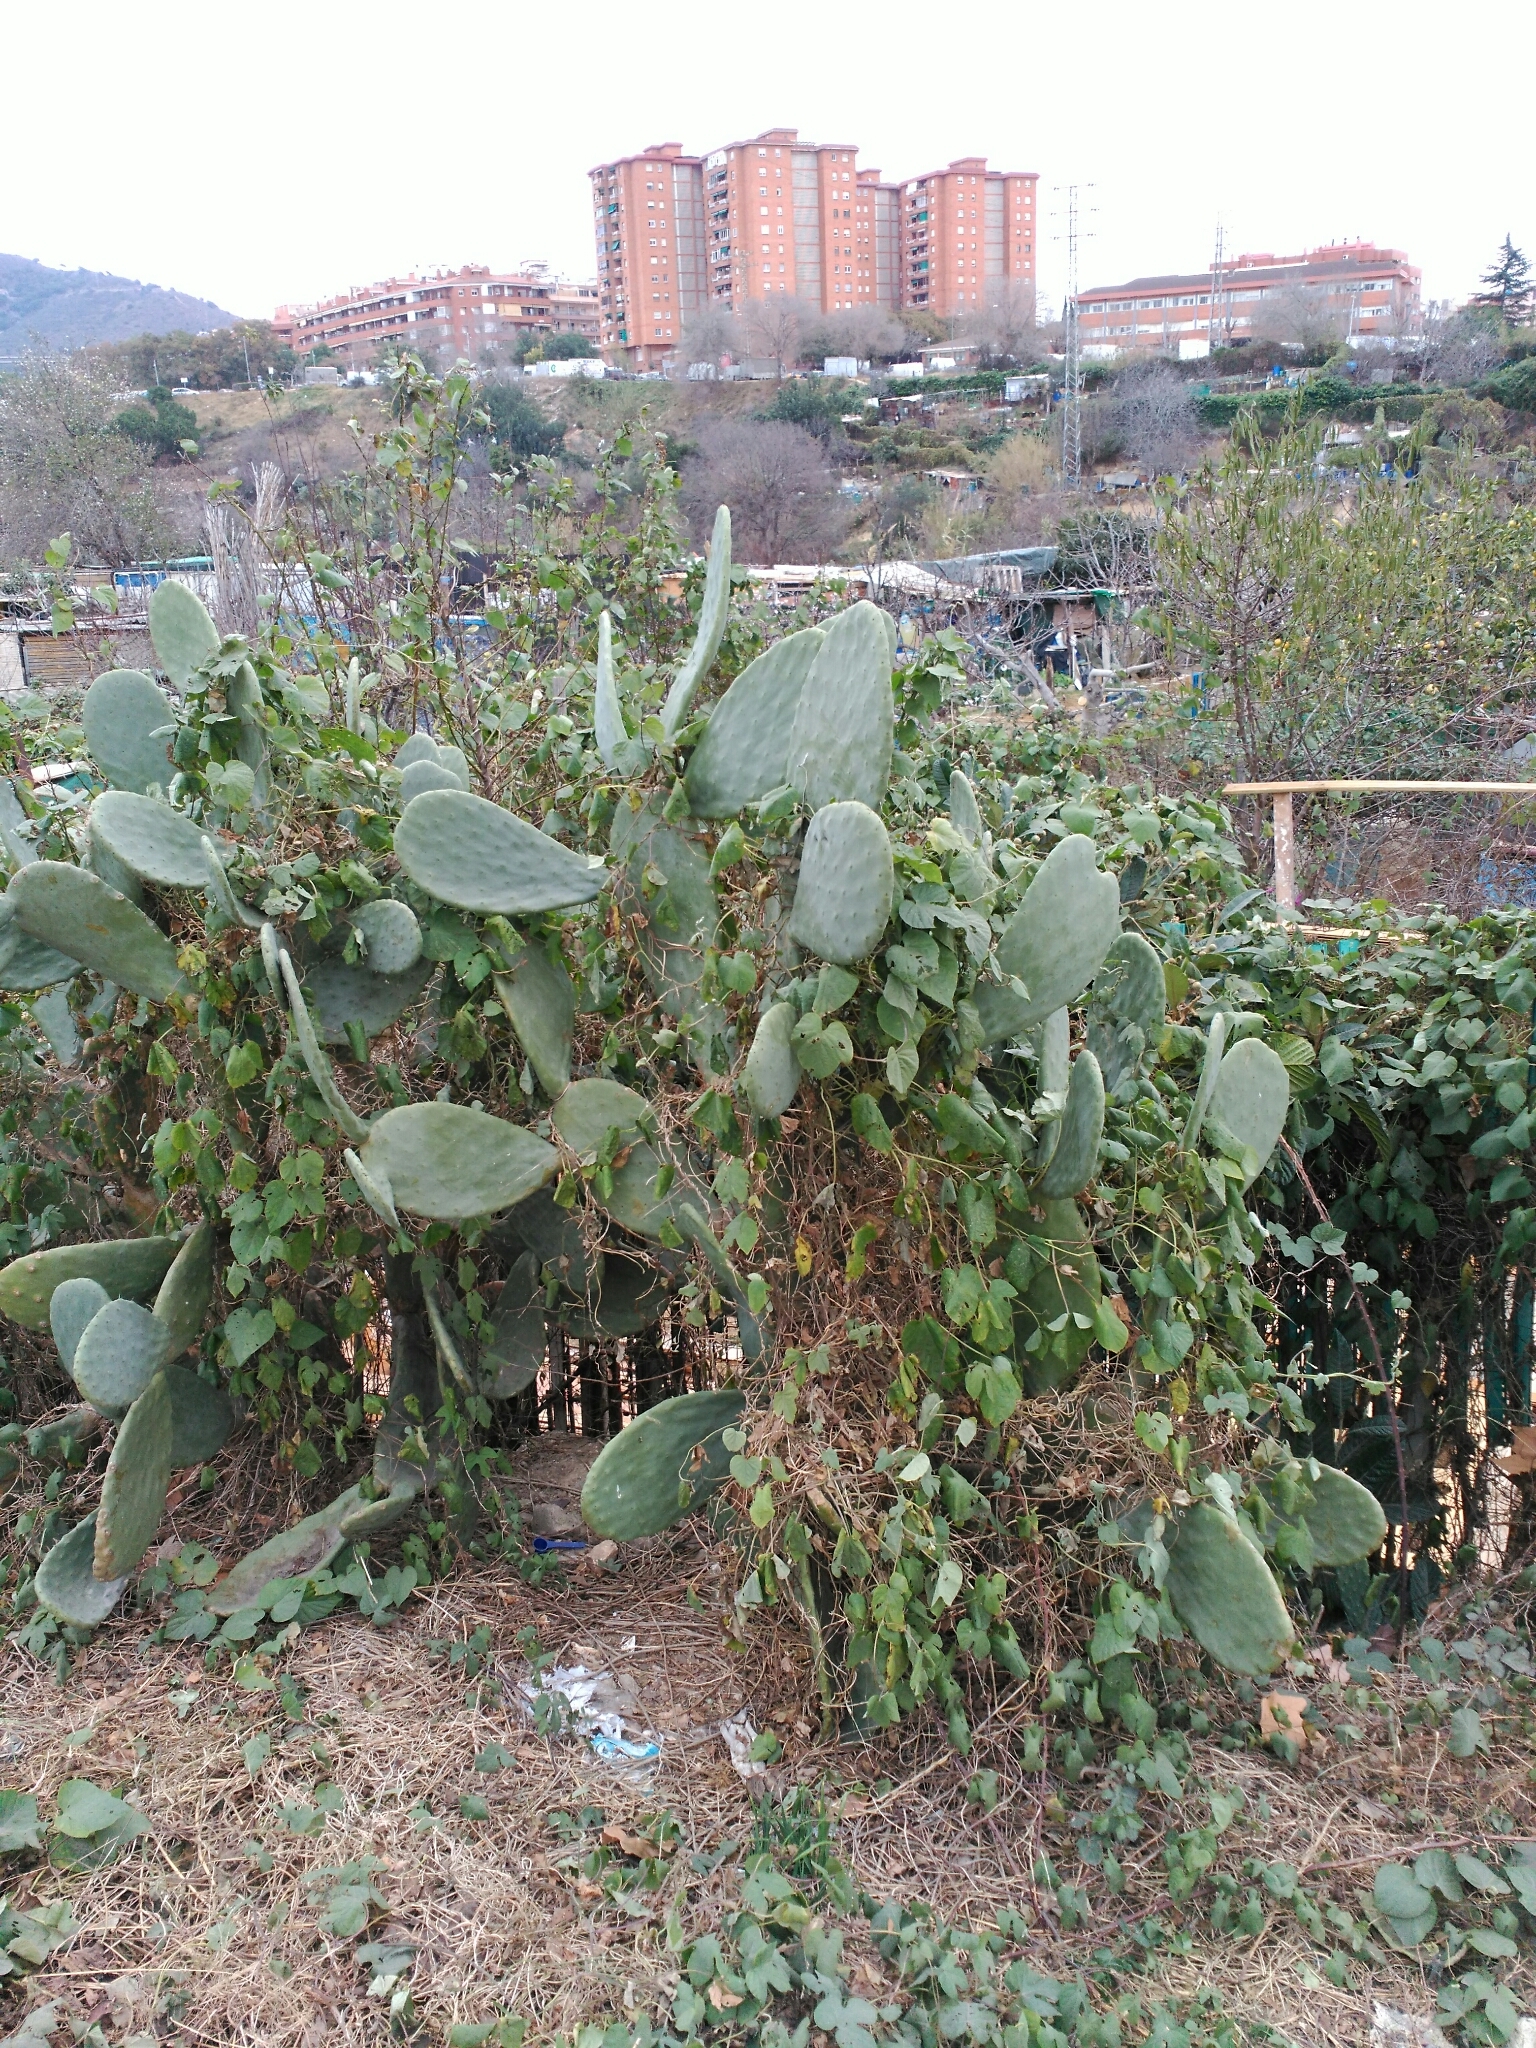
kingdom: Plantae
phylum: Tracheophyta
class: Magnoliopsida
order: Caryophyllales
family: Cactaceae
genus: Opuntia
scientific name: Opuntia ficus-indica
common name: Barbary fig
